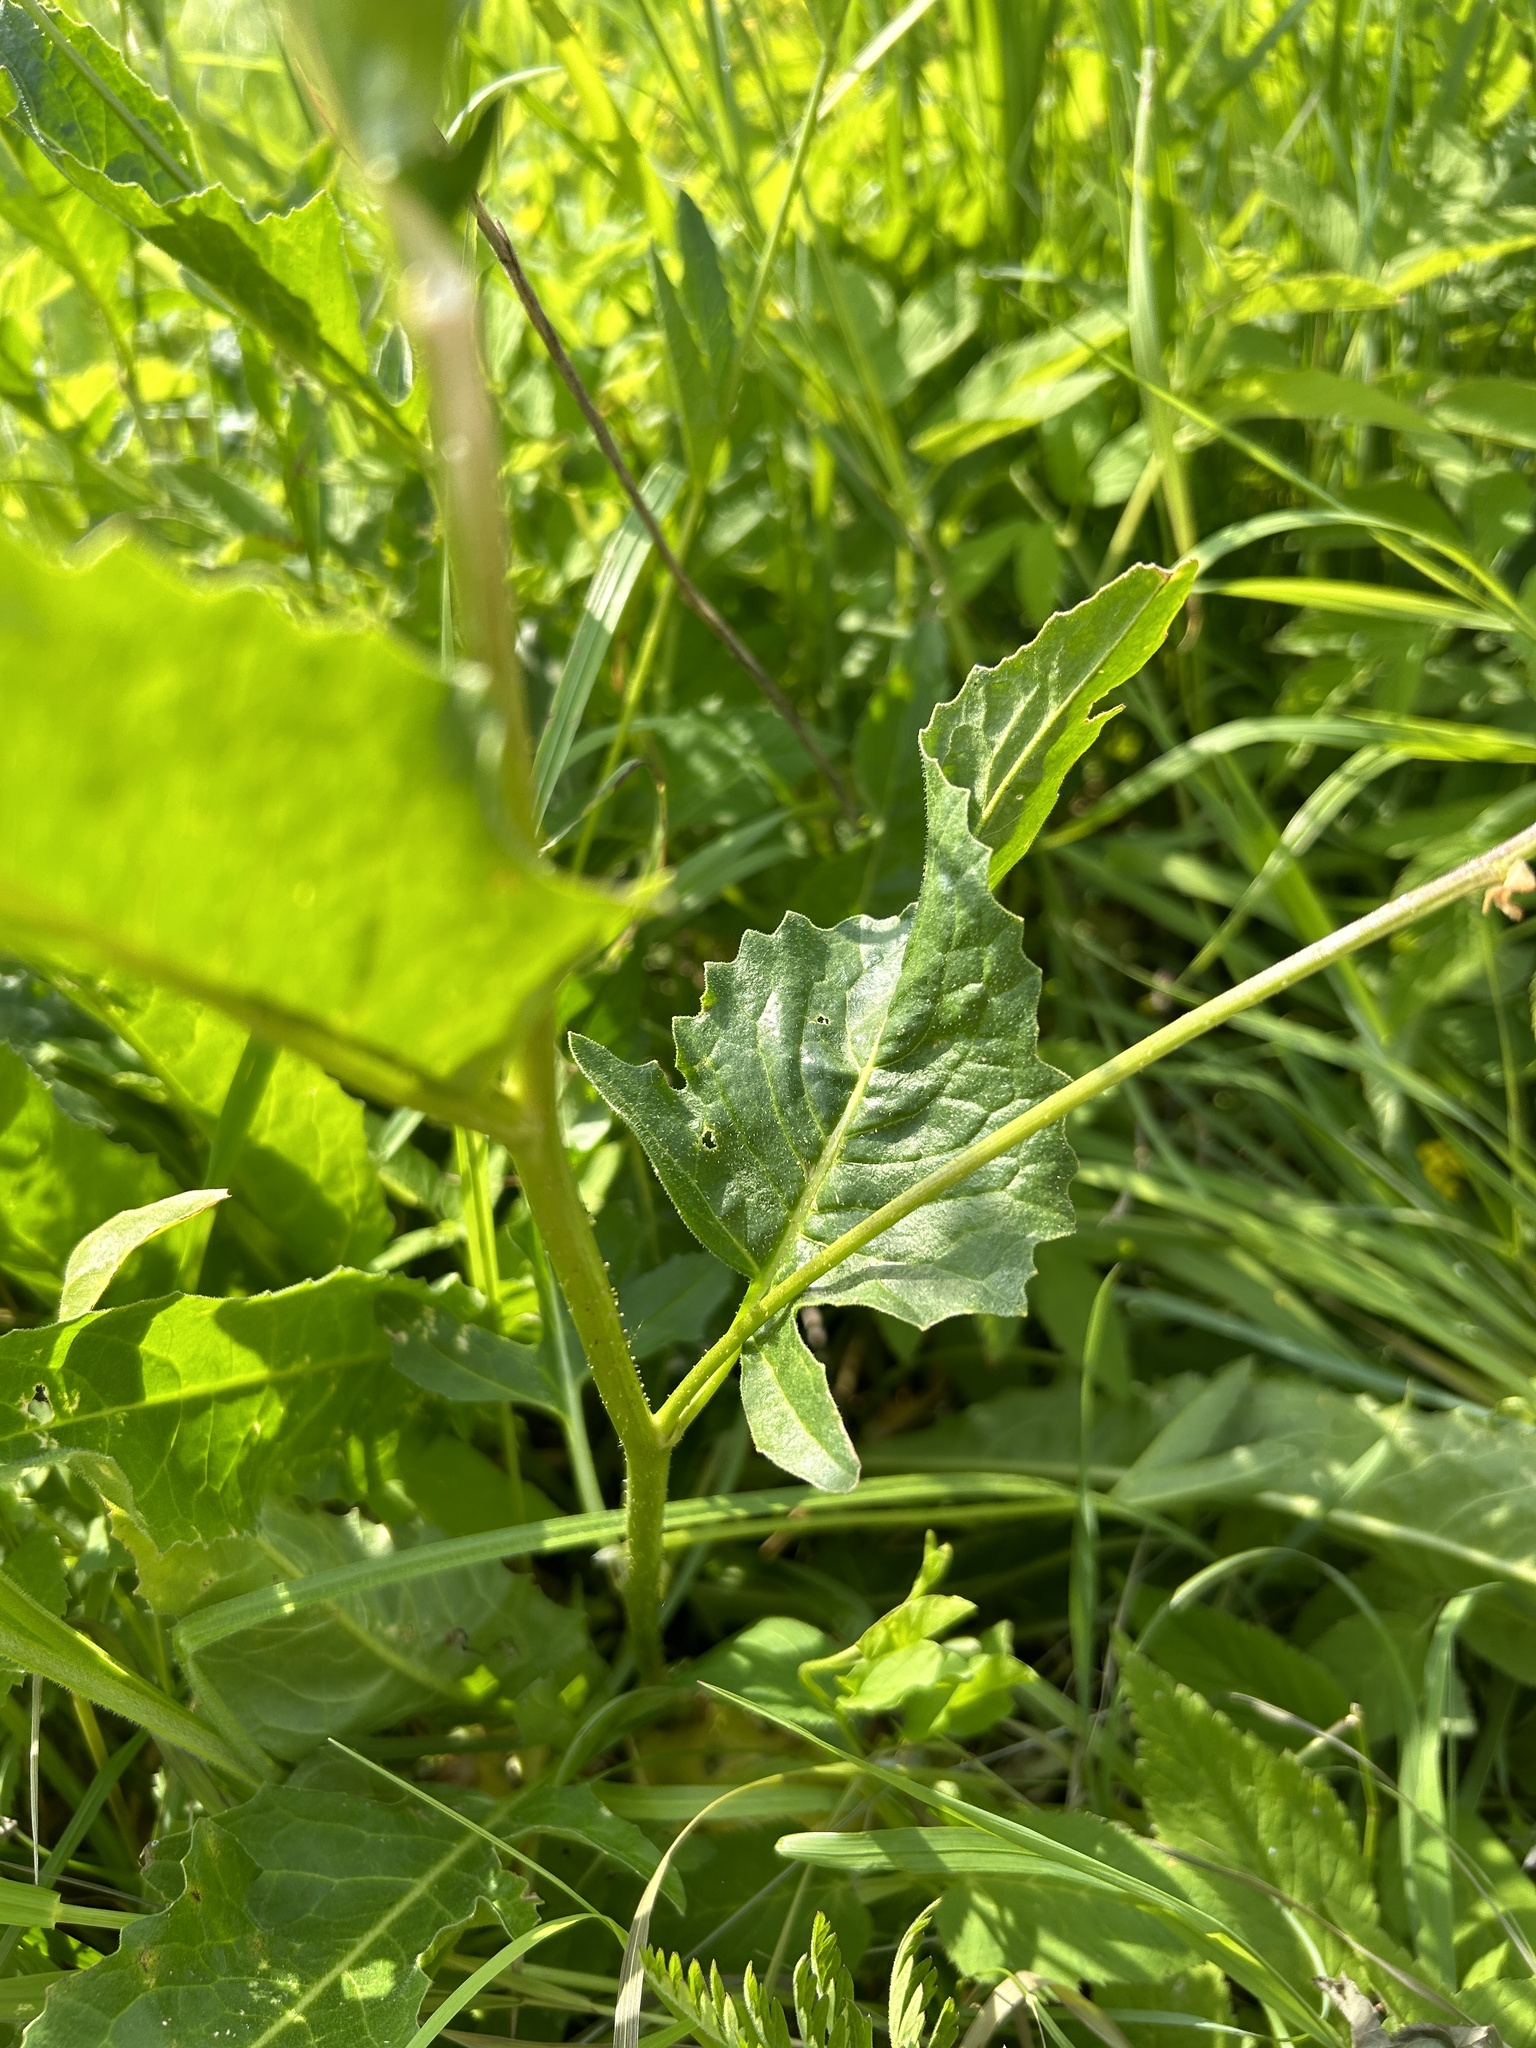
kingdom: Plantae
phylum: Tracheophyta
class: Magnoliopsida
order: Brassicales
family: Brassicaceae
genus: Bunias
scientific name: Bunias orientalis
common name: Warty-cabbage
